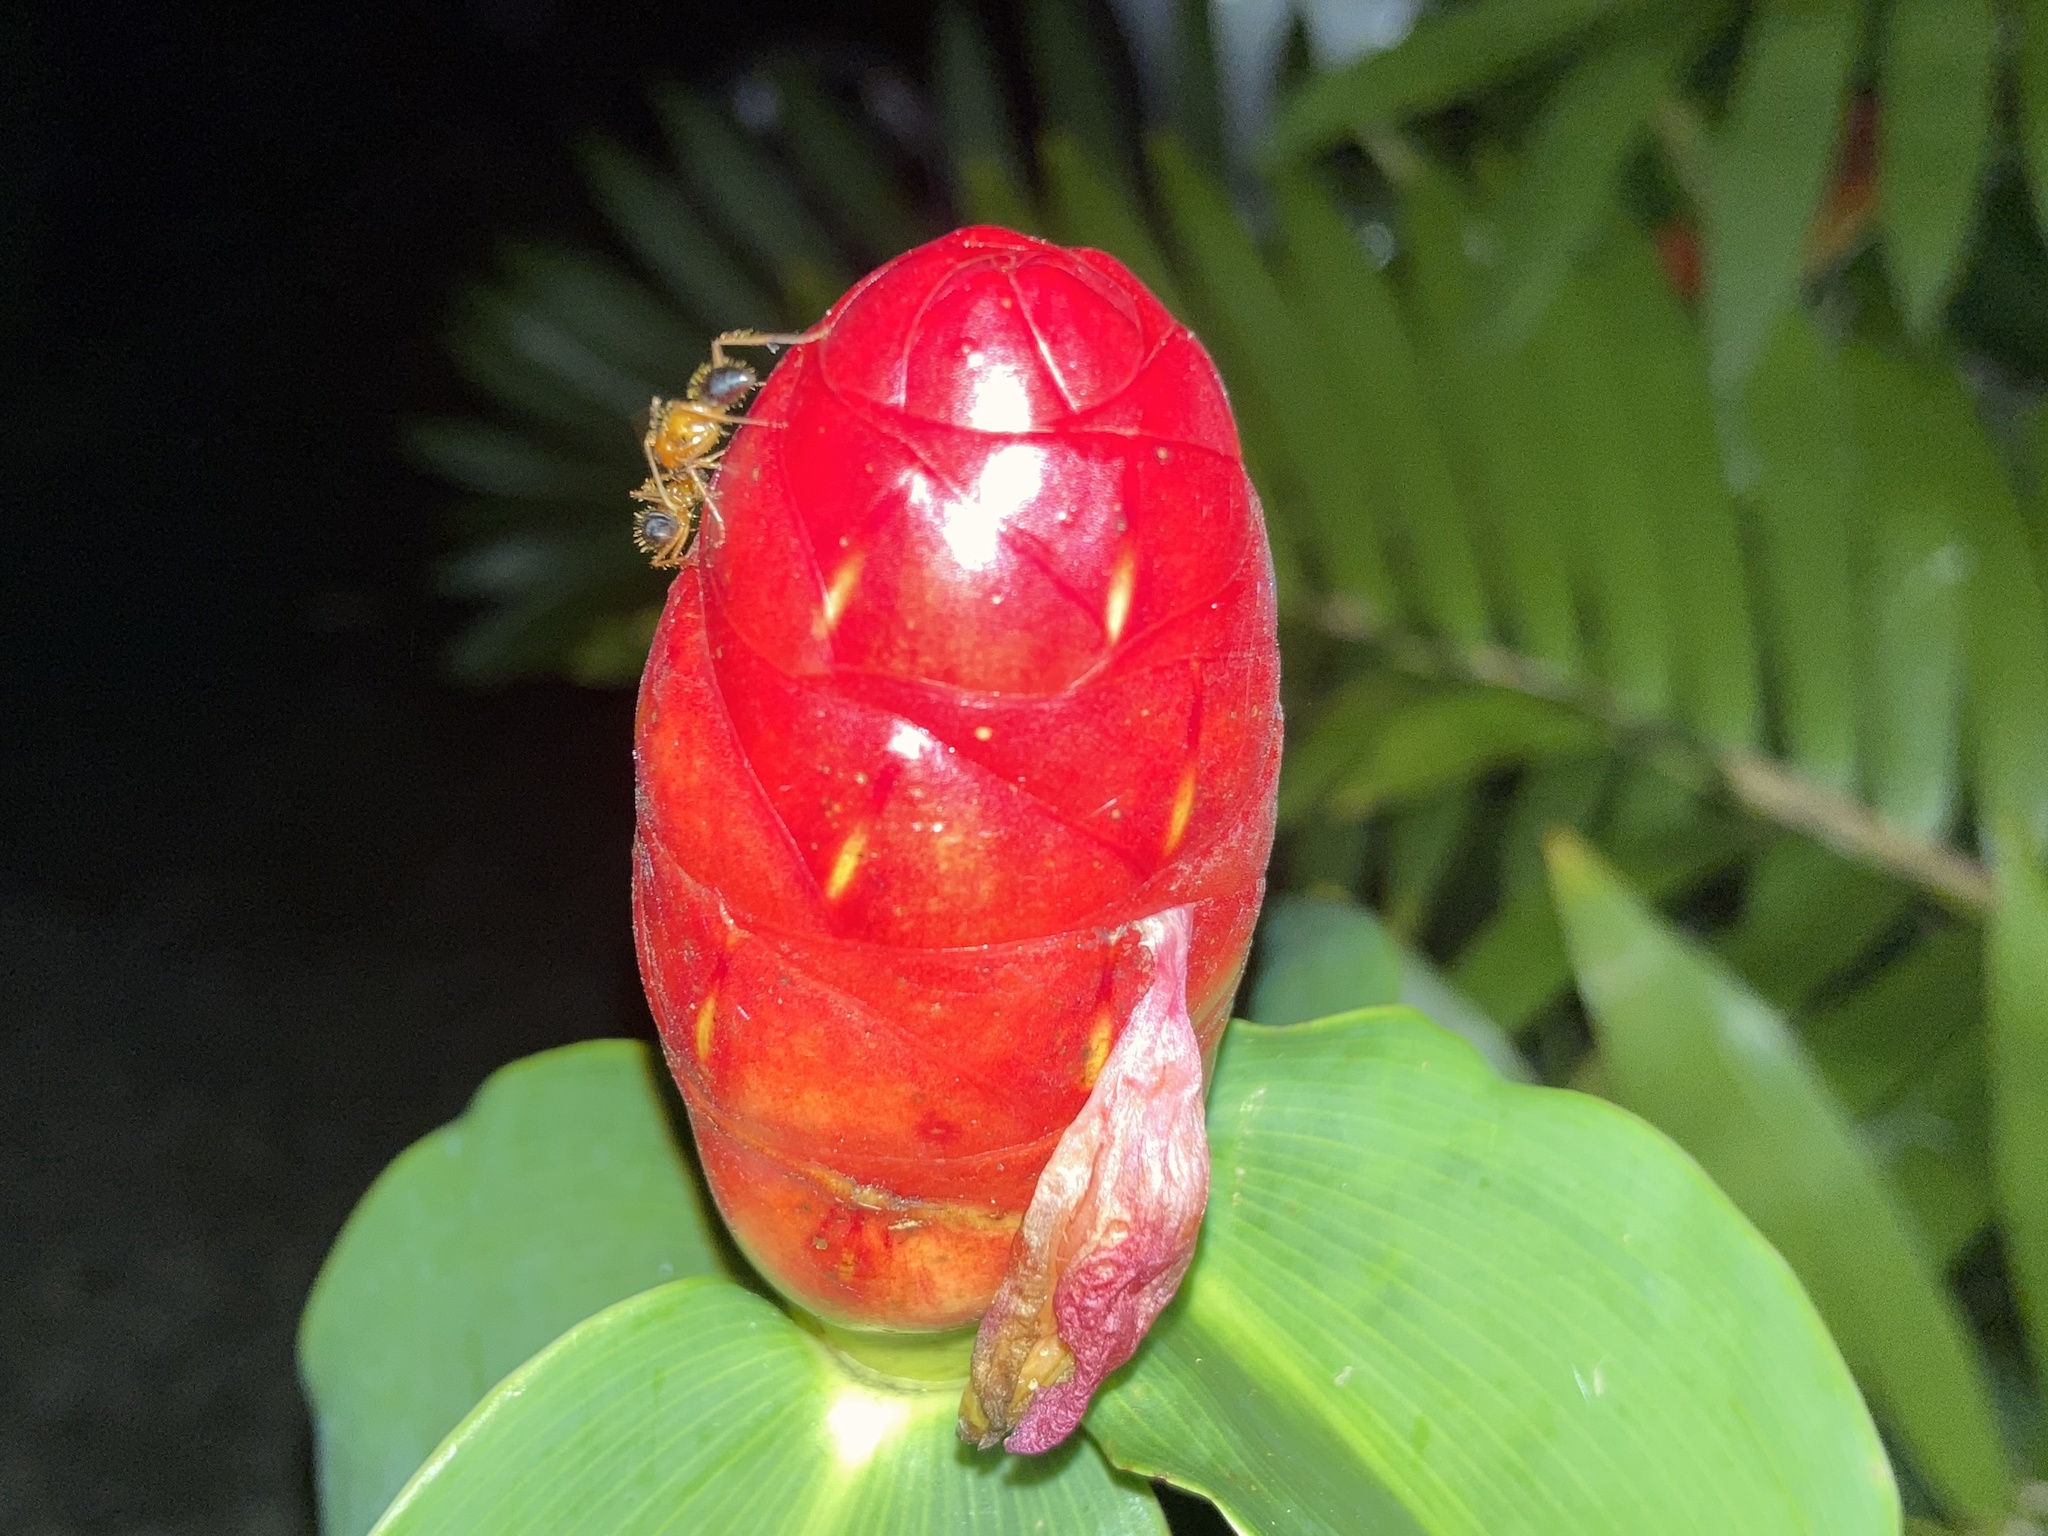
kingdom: Animalia
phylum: Arthropoda
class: Insecta
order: Hymenoptera
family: Formicidae
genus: Camponotus
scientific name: Camponotus floridanus
